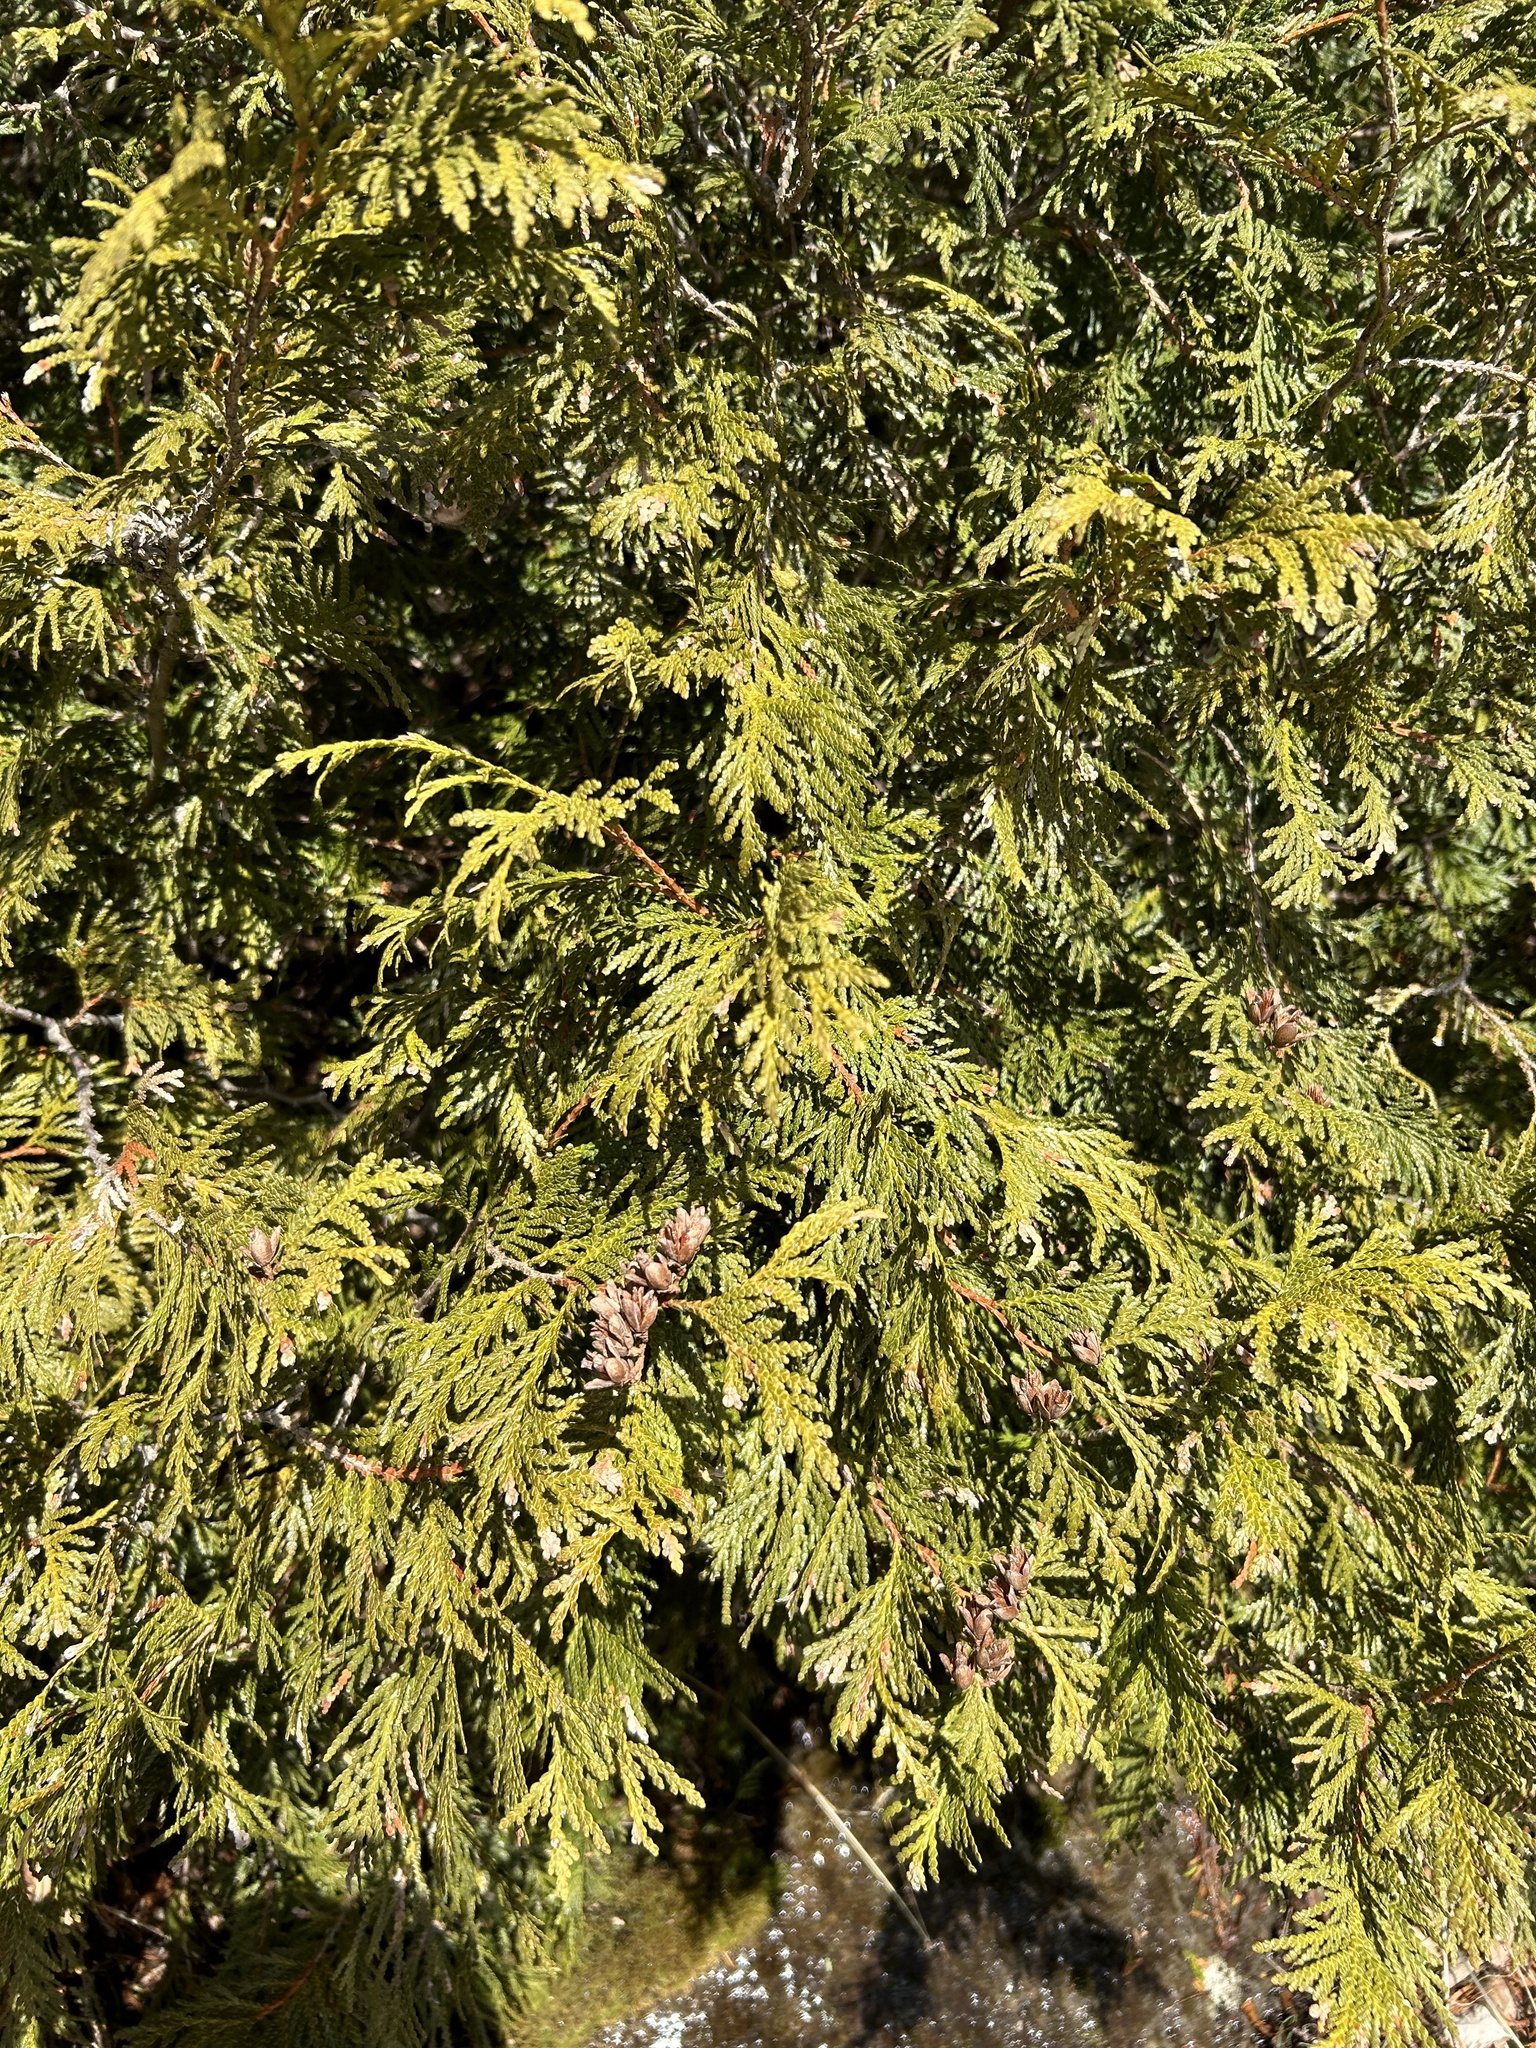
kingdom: Plantae
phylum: Tracheophyta
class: Pinopsida
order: Pinales
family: Cupressaceae
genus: Thuja
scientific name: Thuja occidentalis
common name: Northern white-cedar
